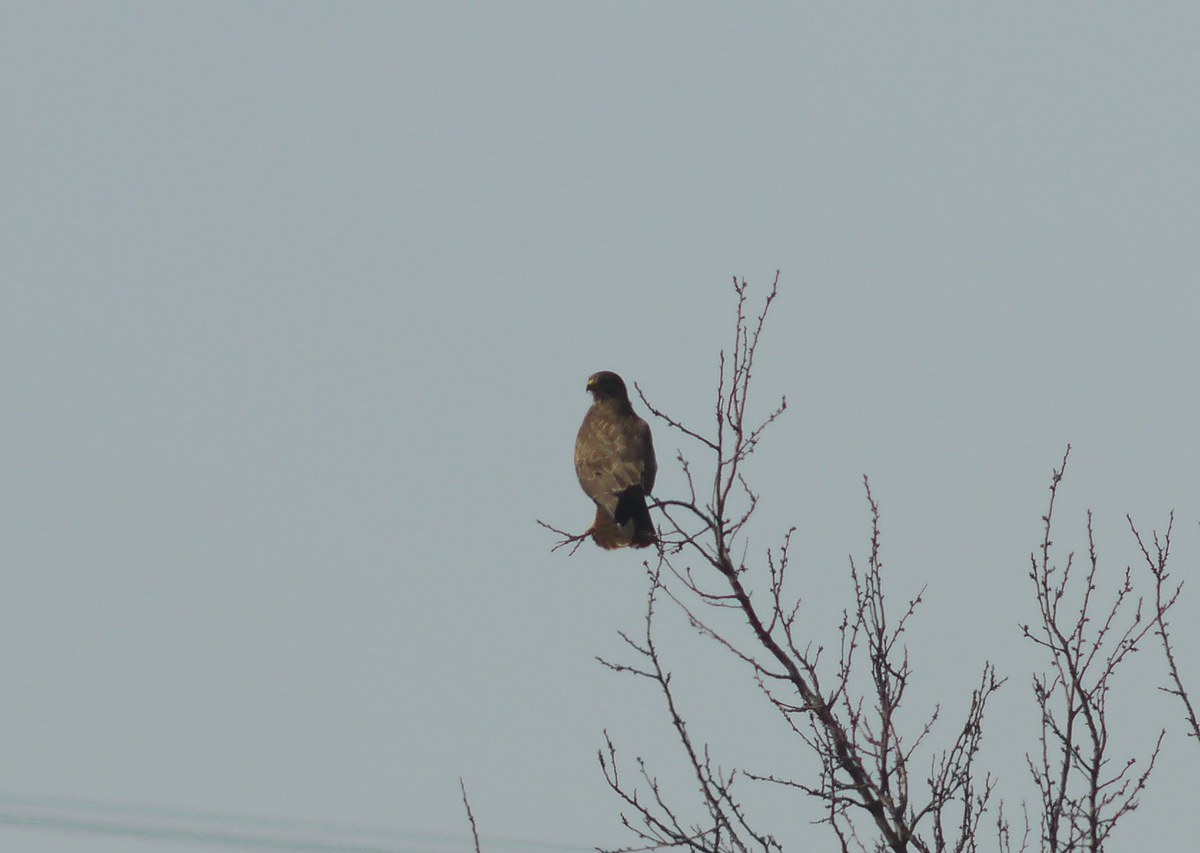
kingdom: Animalia
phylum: Chordata
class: Aves
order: Accipitriformes
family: Accipitridae
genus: Buteo
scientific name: Buteo buteo
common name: Common buzzard
